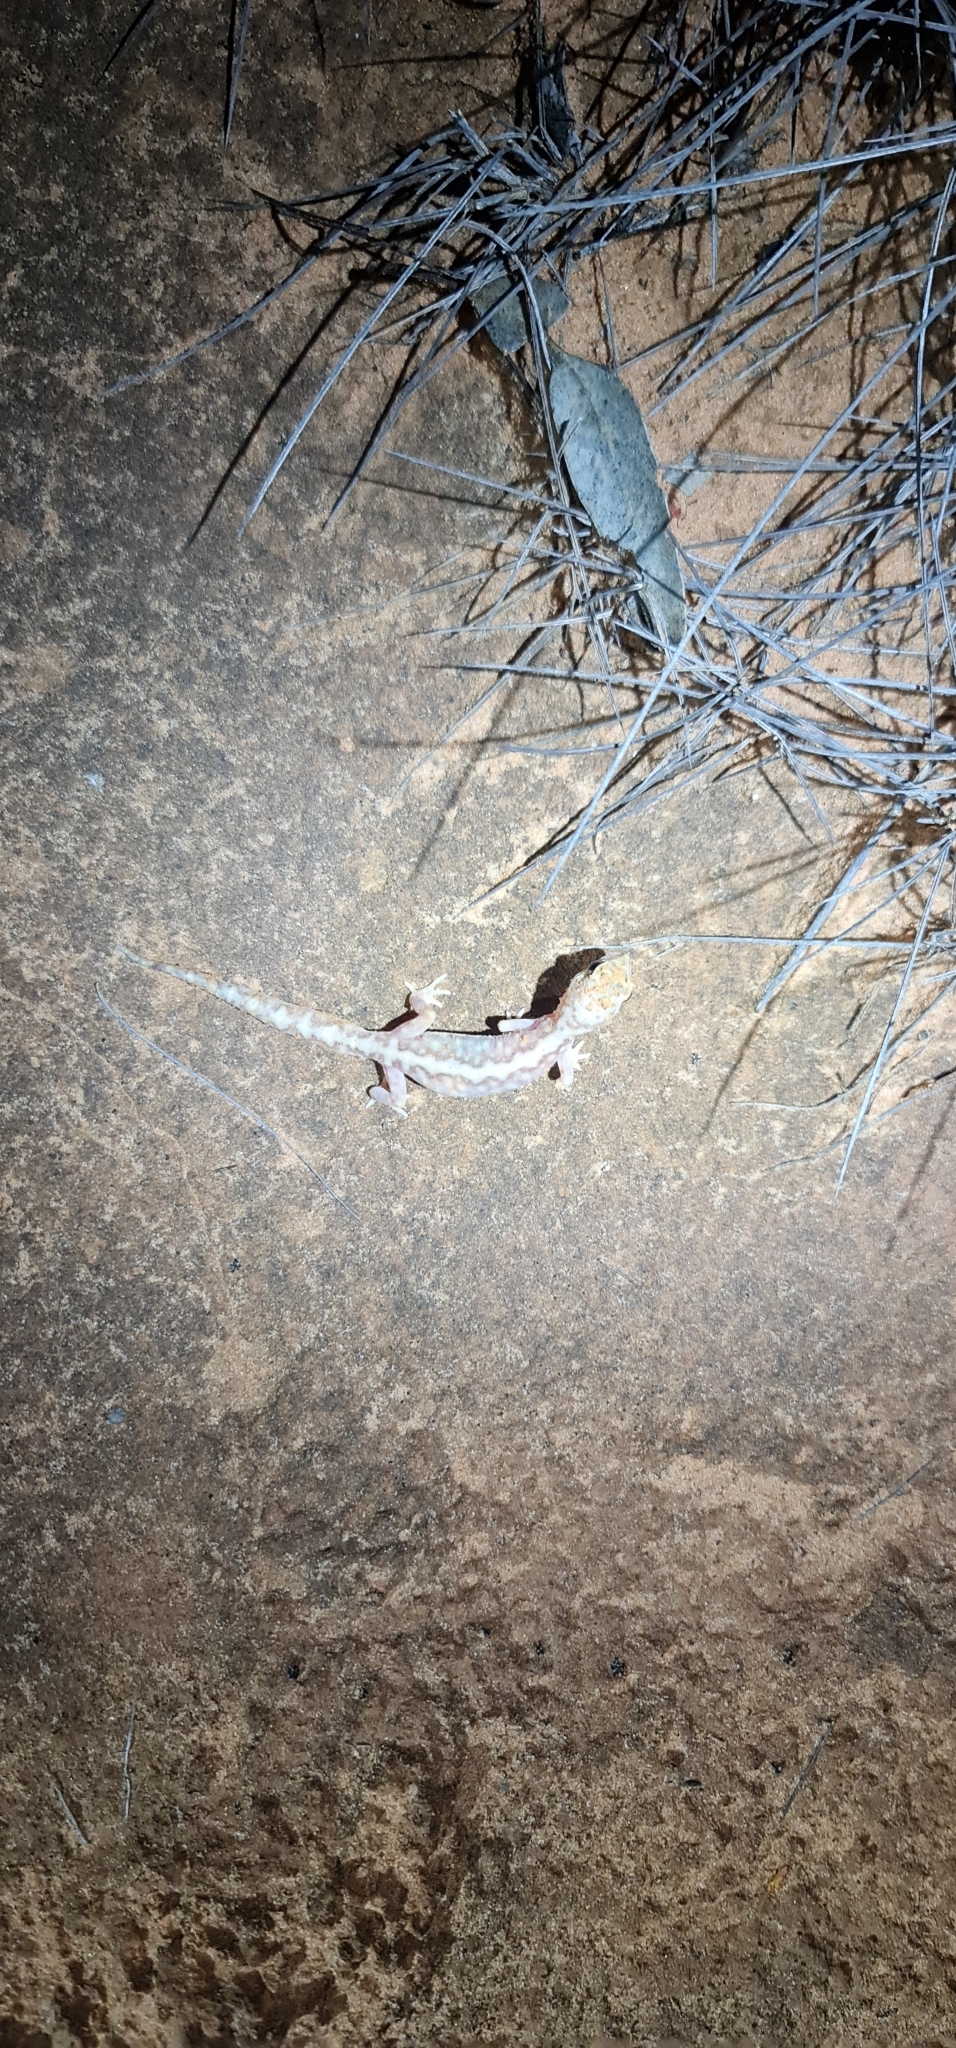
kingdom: Animalia
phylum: Chordata
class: Squamata
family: Diplodactylidae
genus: Lucasium
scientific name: Lucasium damaeum
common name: Beaded gecko
